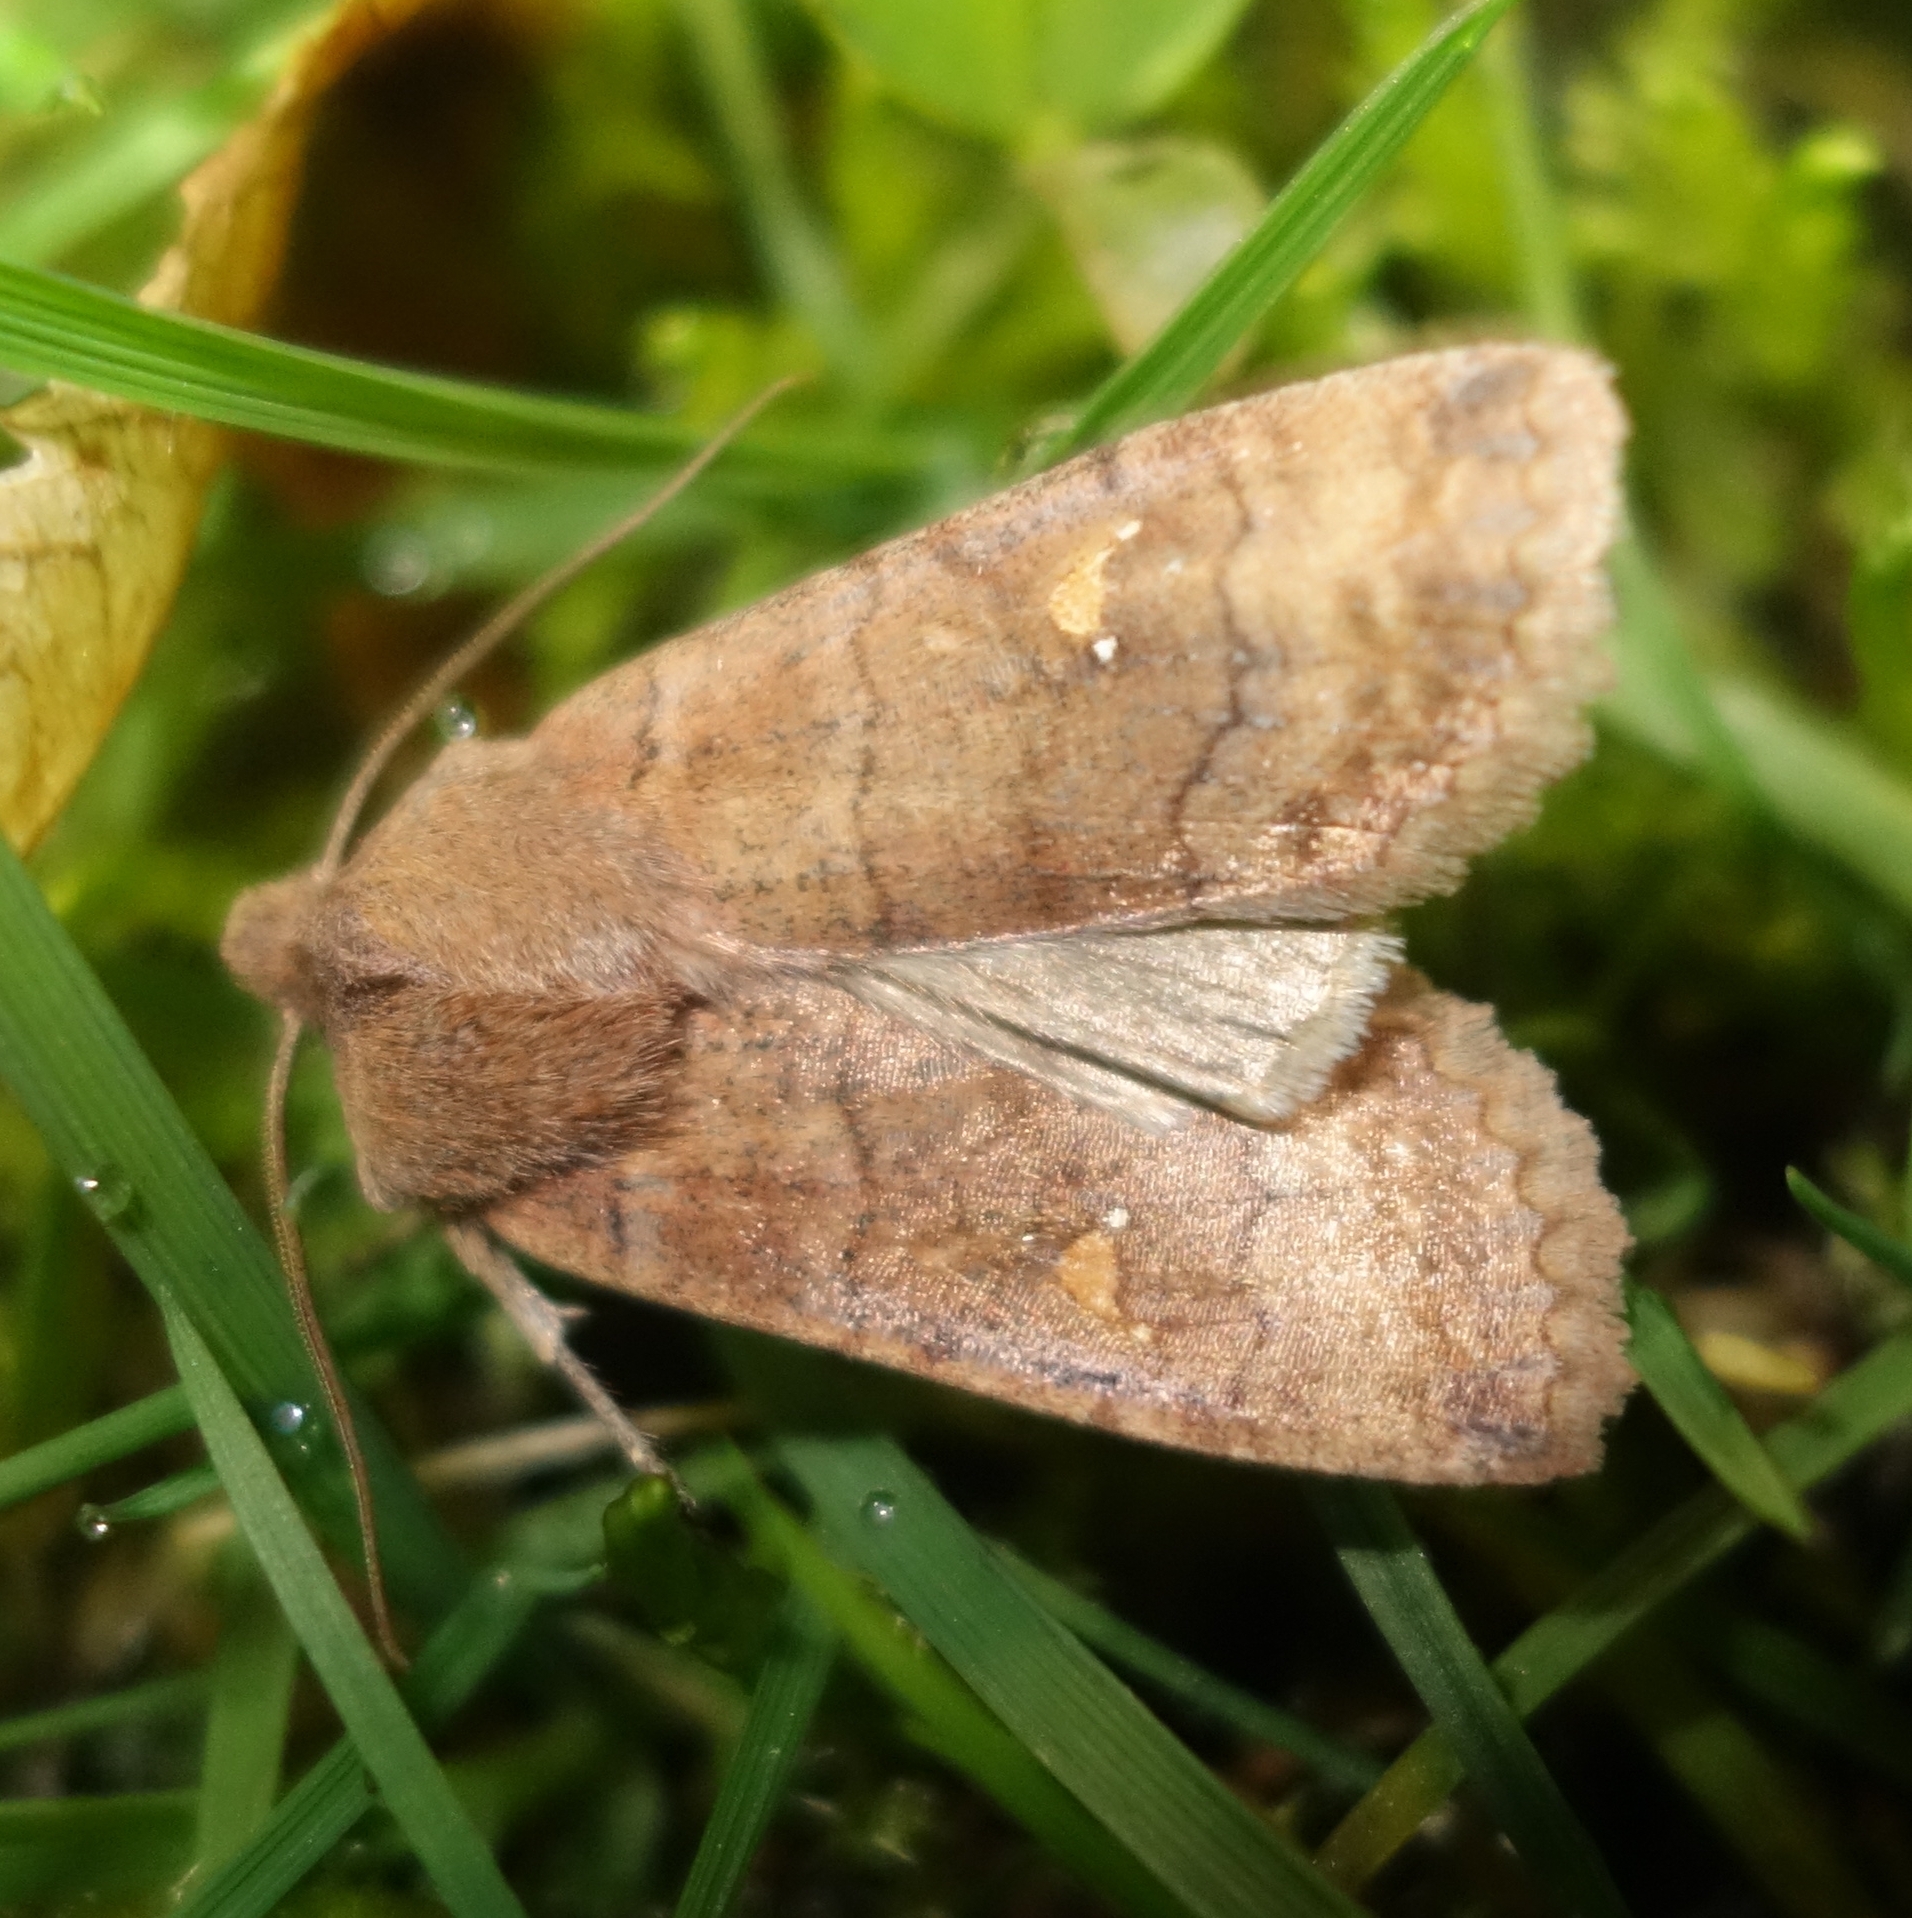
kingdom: Animalia
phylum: Arthropoda
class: Insecta
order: Lepidoptera
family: Noctuidae
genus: Eupsilia
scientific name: Eupsilia transversa
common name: Satellite
